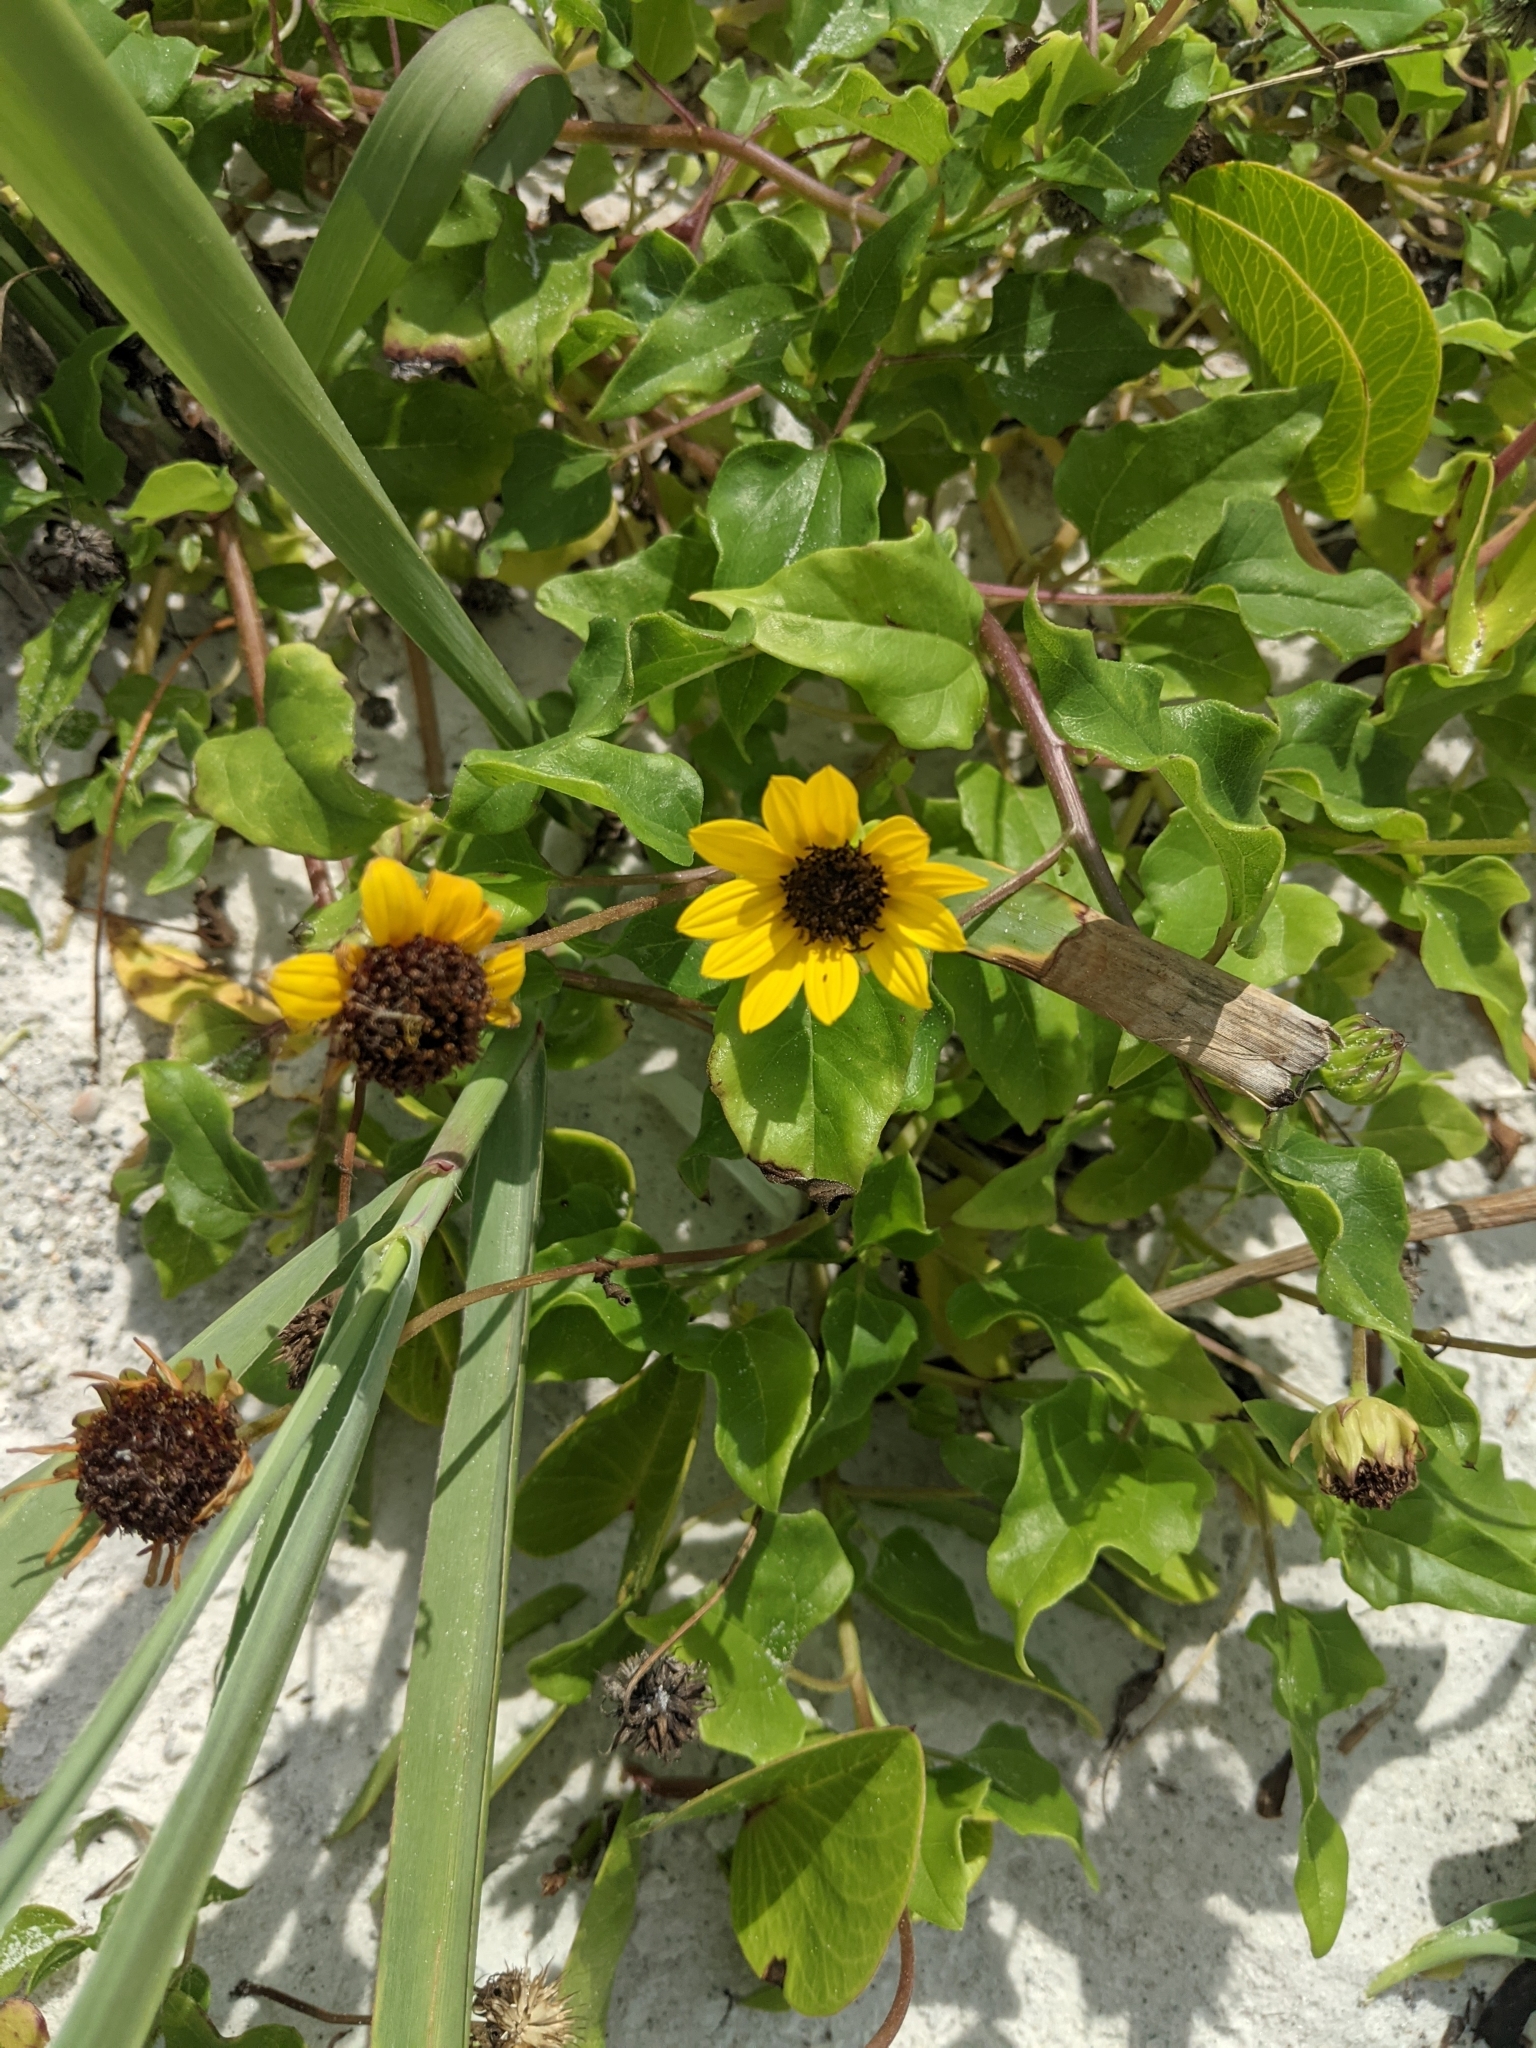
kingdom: Plantae
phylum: Tracheophyta
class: Magnoliopsida
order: Asterales
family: Asteraceae
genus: Helianthus
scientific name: Helianthus debilis
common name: Weak sunflower
